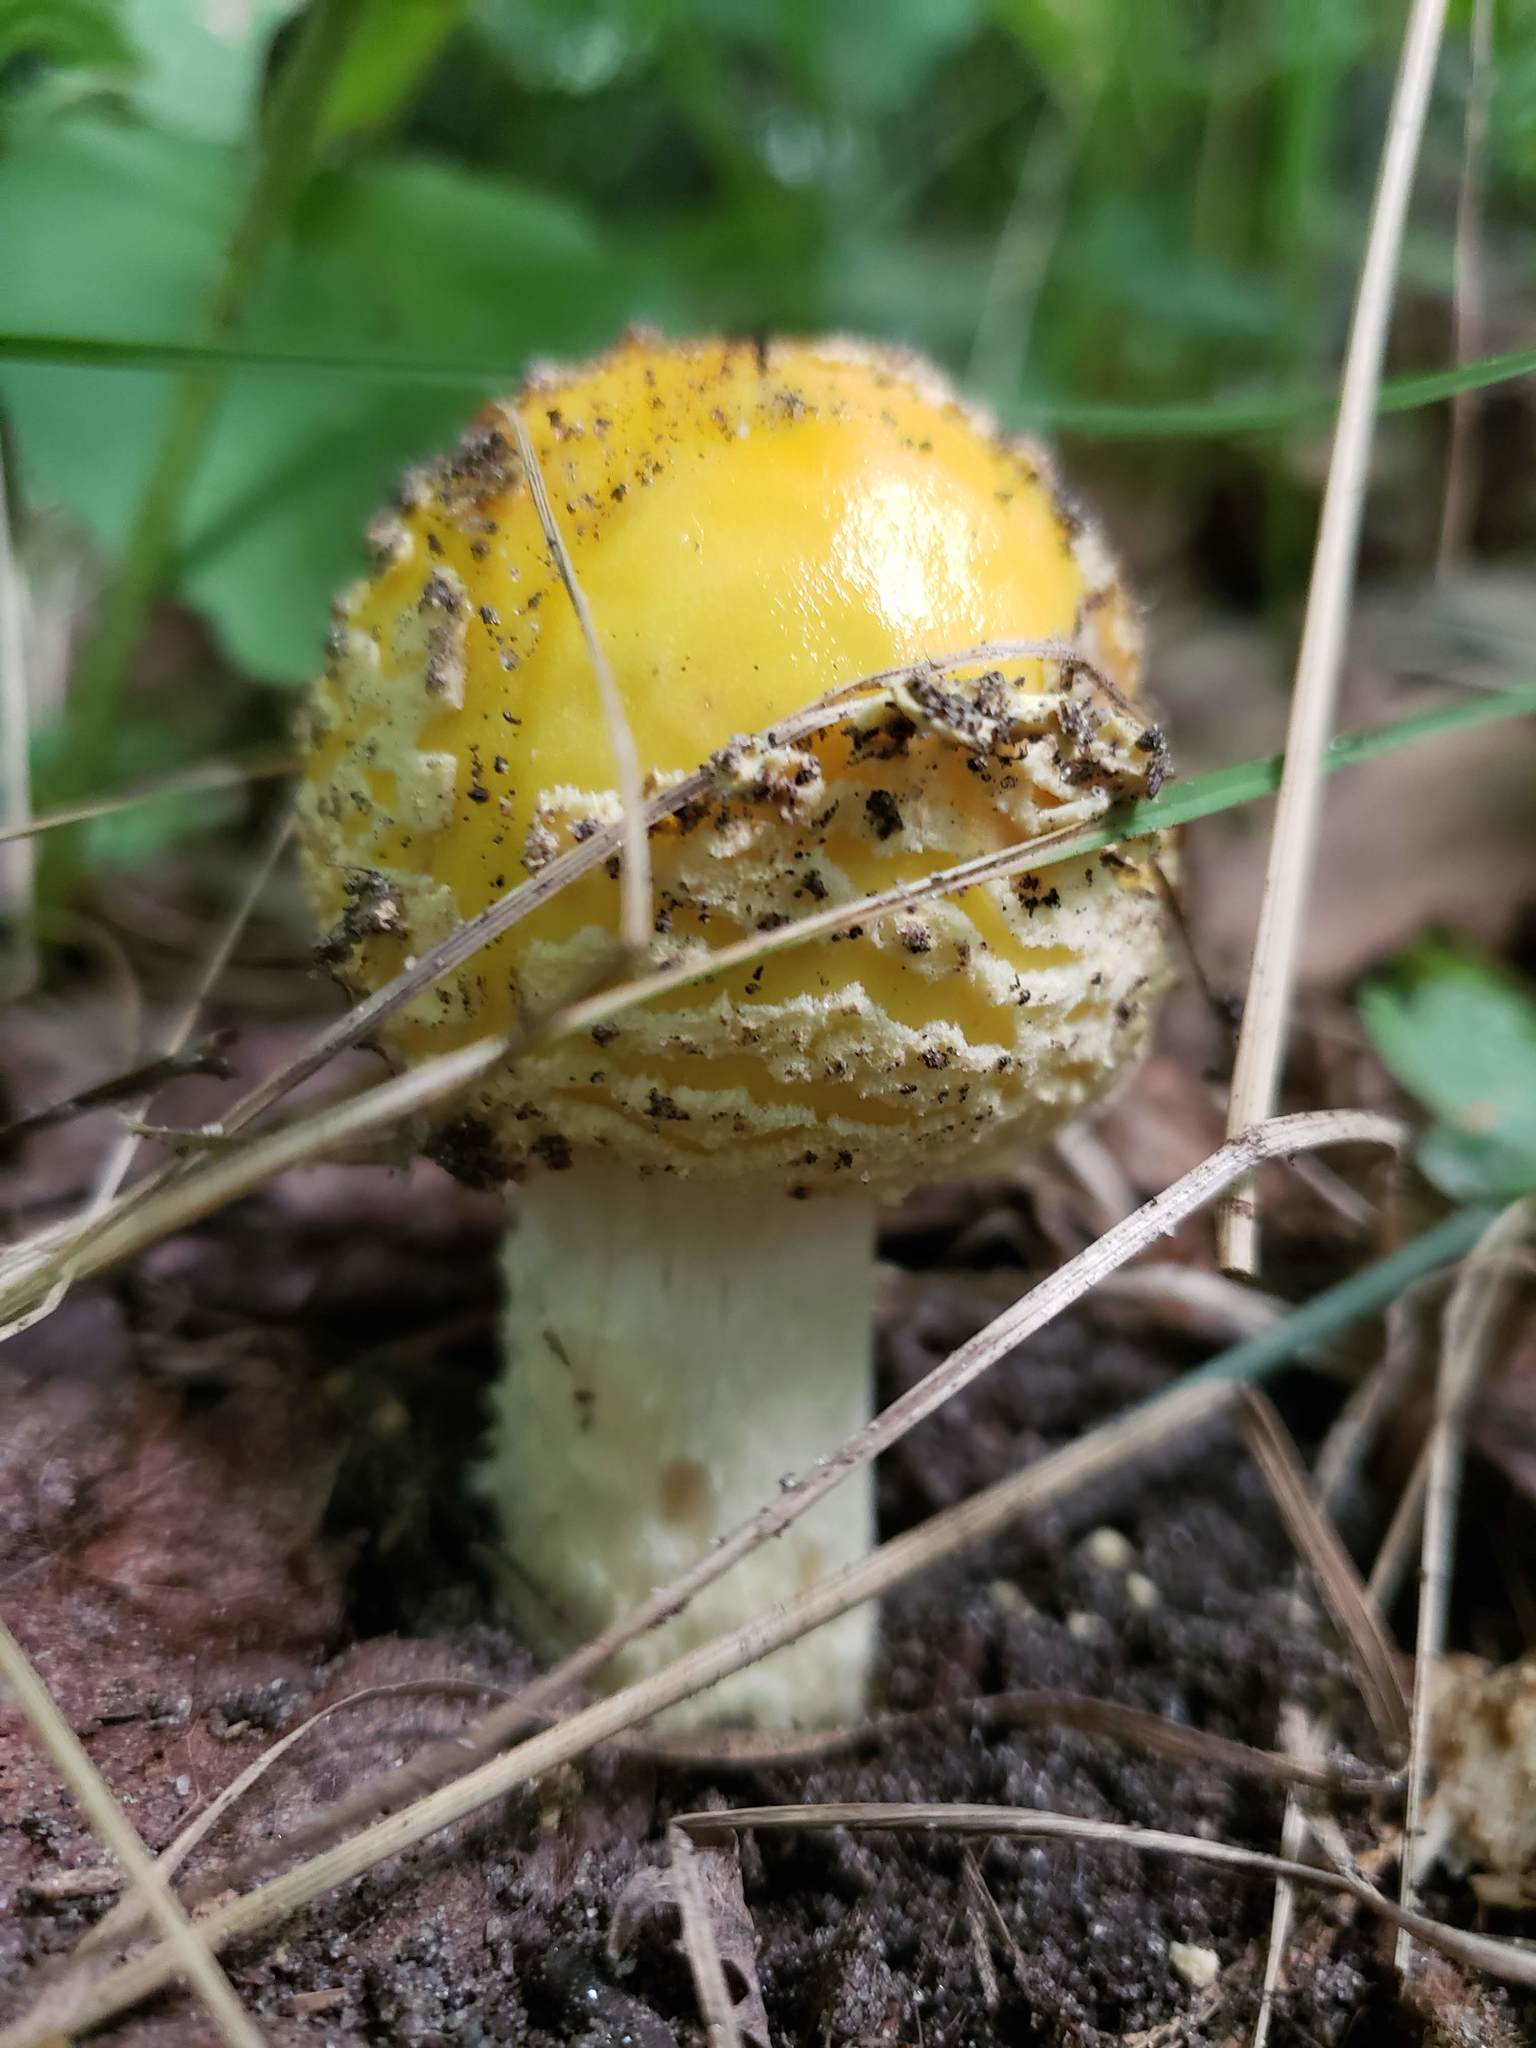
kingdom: Fungi
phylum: Basidiomycota
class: Agaricomycetes
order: Agaricales
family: Amanitaceae
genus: Amanita
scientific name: Amanita muscaria
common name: Fly agaric
